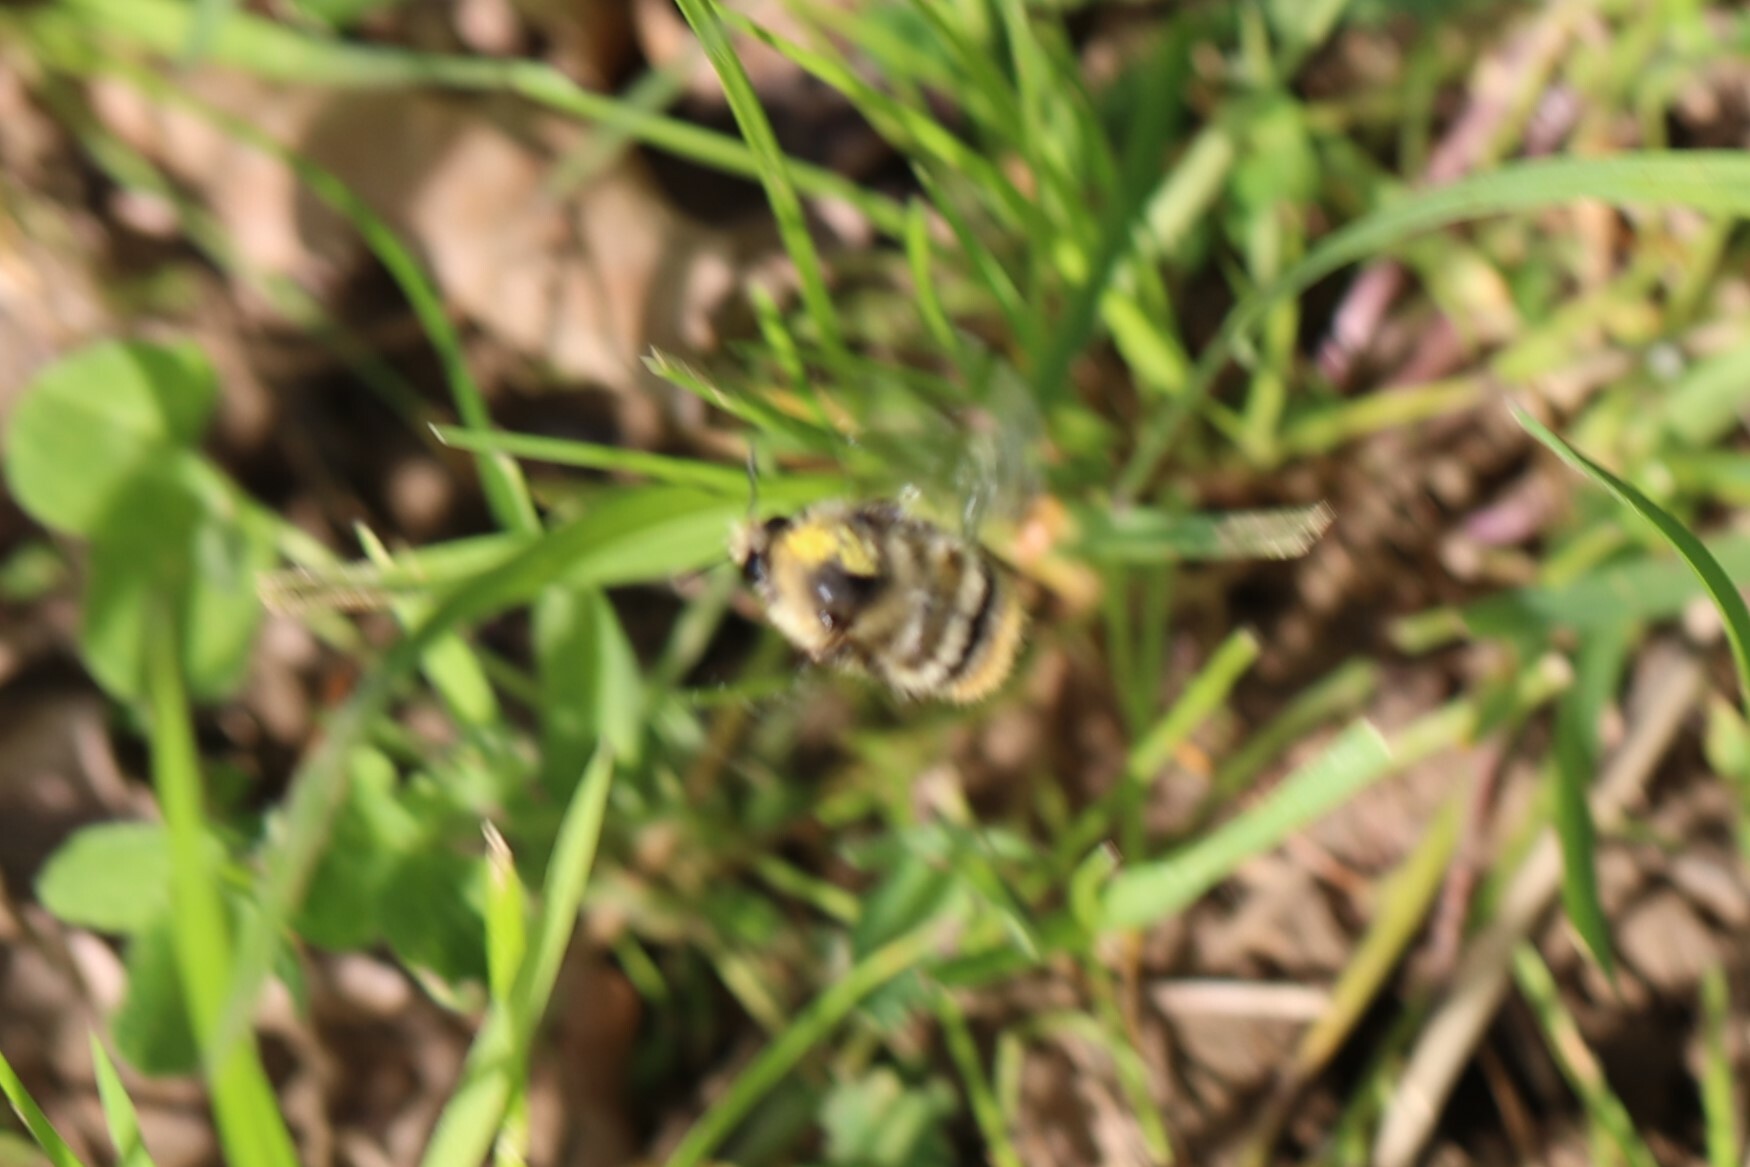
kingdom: Animalia
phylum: Arthropoda
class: Insecta
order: Hymenoptera
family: Apidae
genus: Bombus
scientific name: Bombus sylvarum
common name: Shrill carder bee
